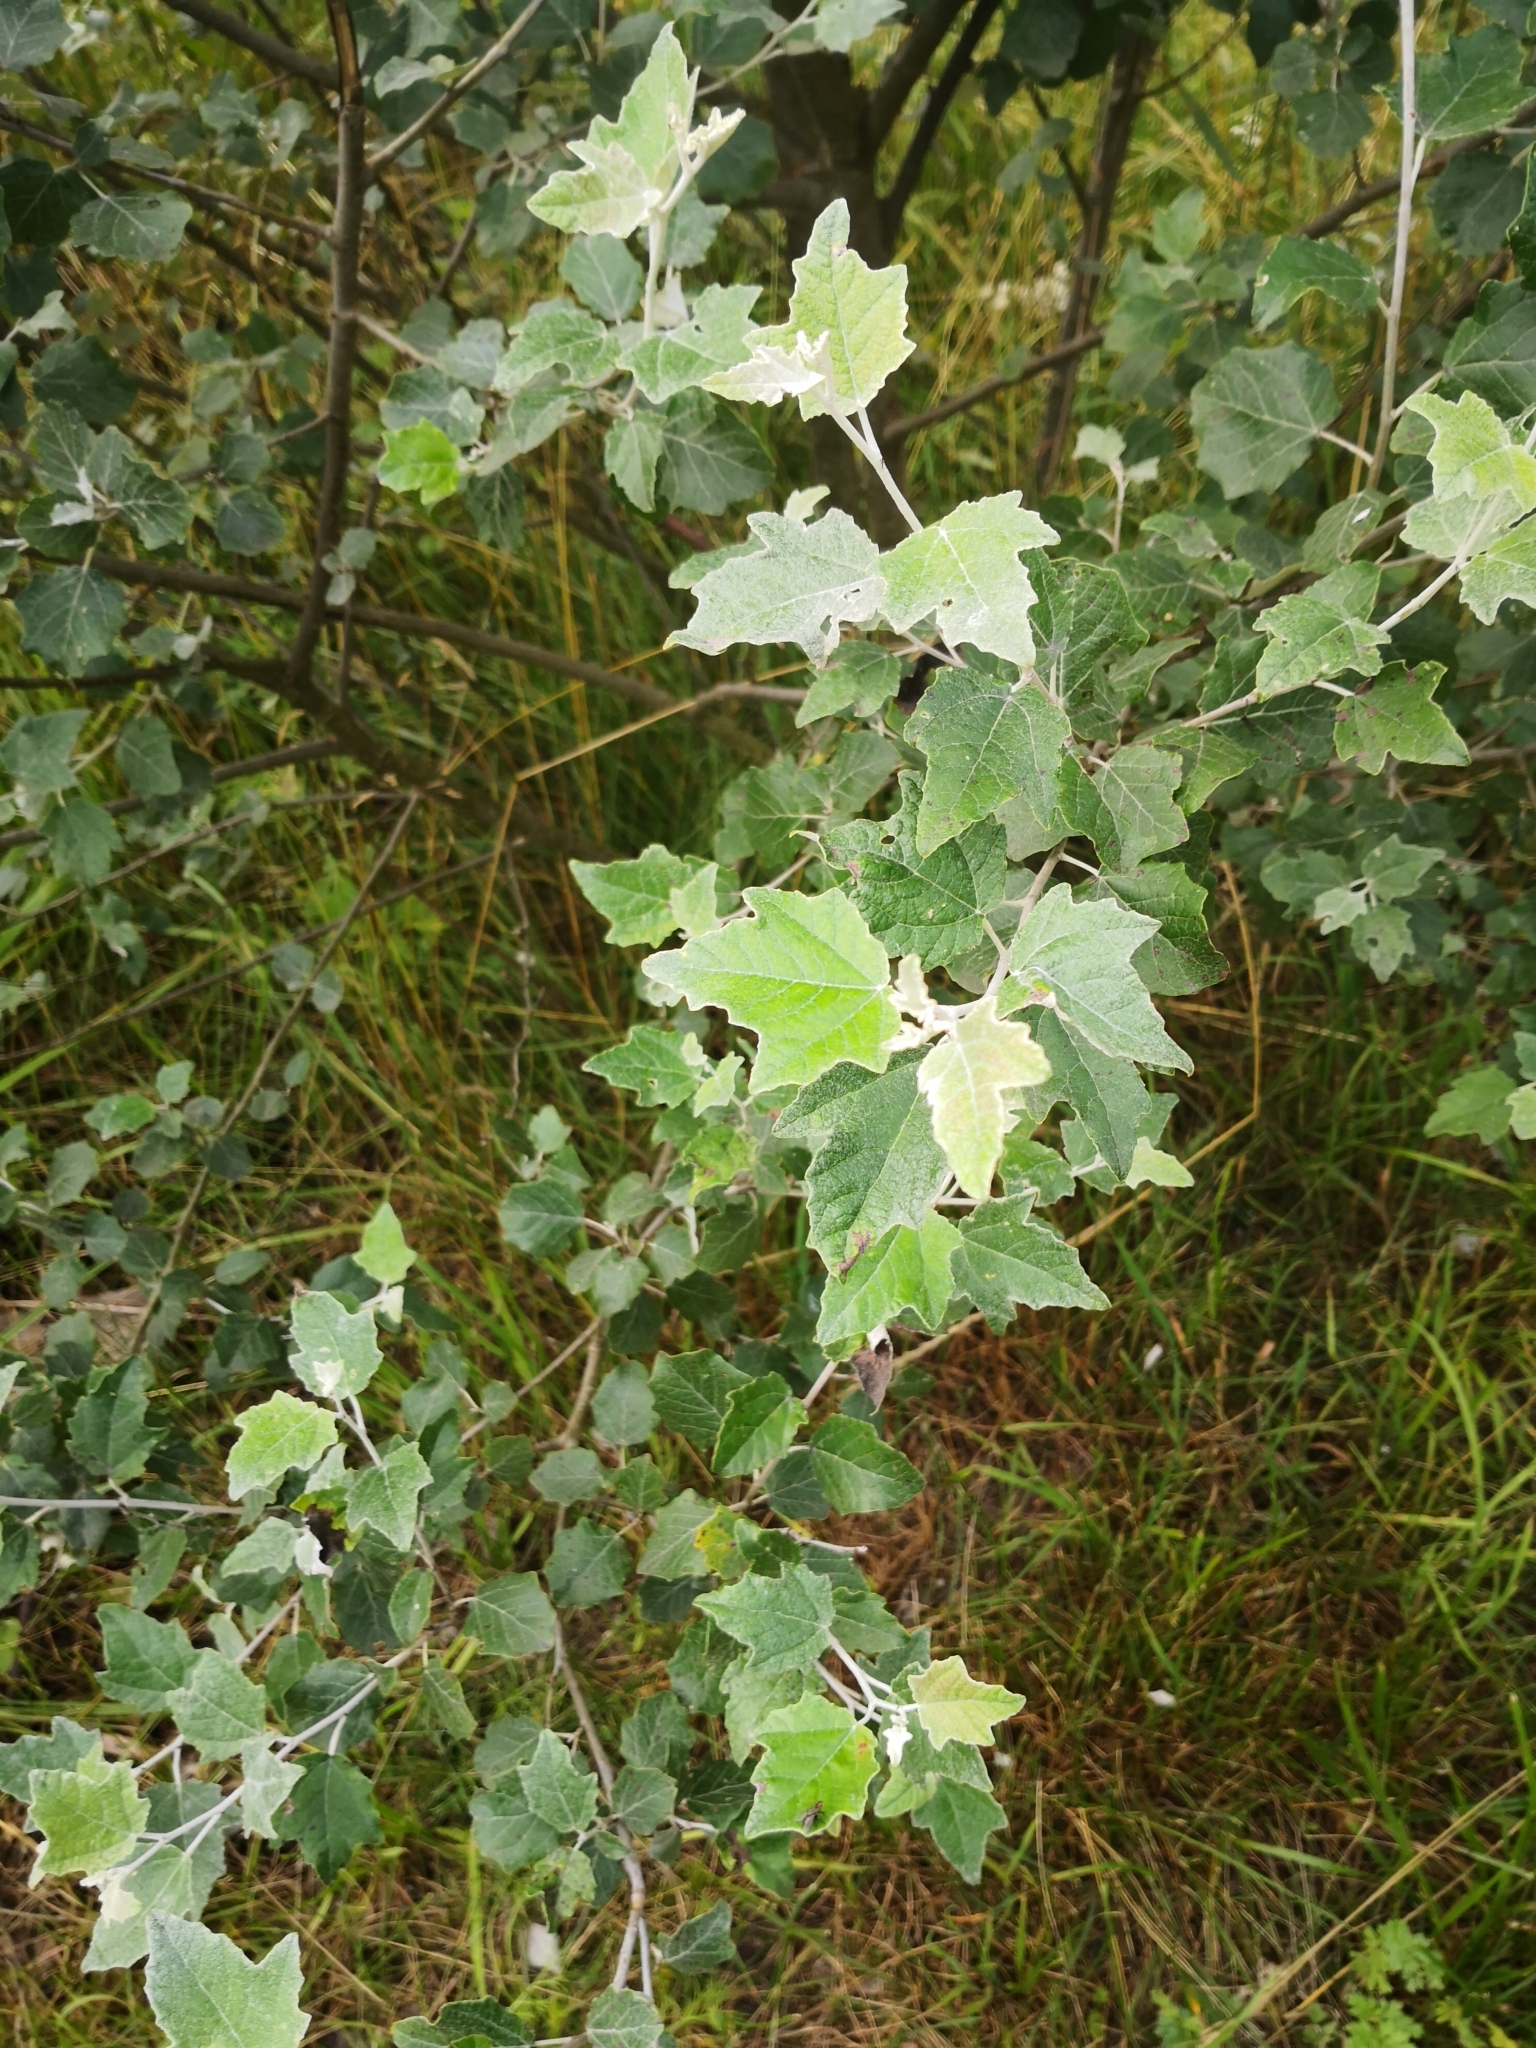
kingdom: Plantae
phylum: Tracheophyta
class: Magnoliopsida
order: Malpighiales
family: Salicaceae
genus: Populus
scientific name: Populus alba
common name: White poplar
